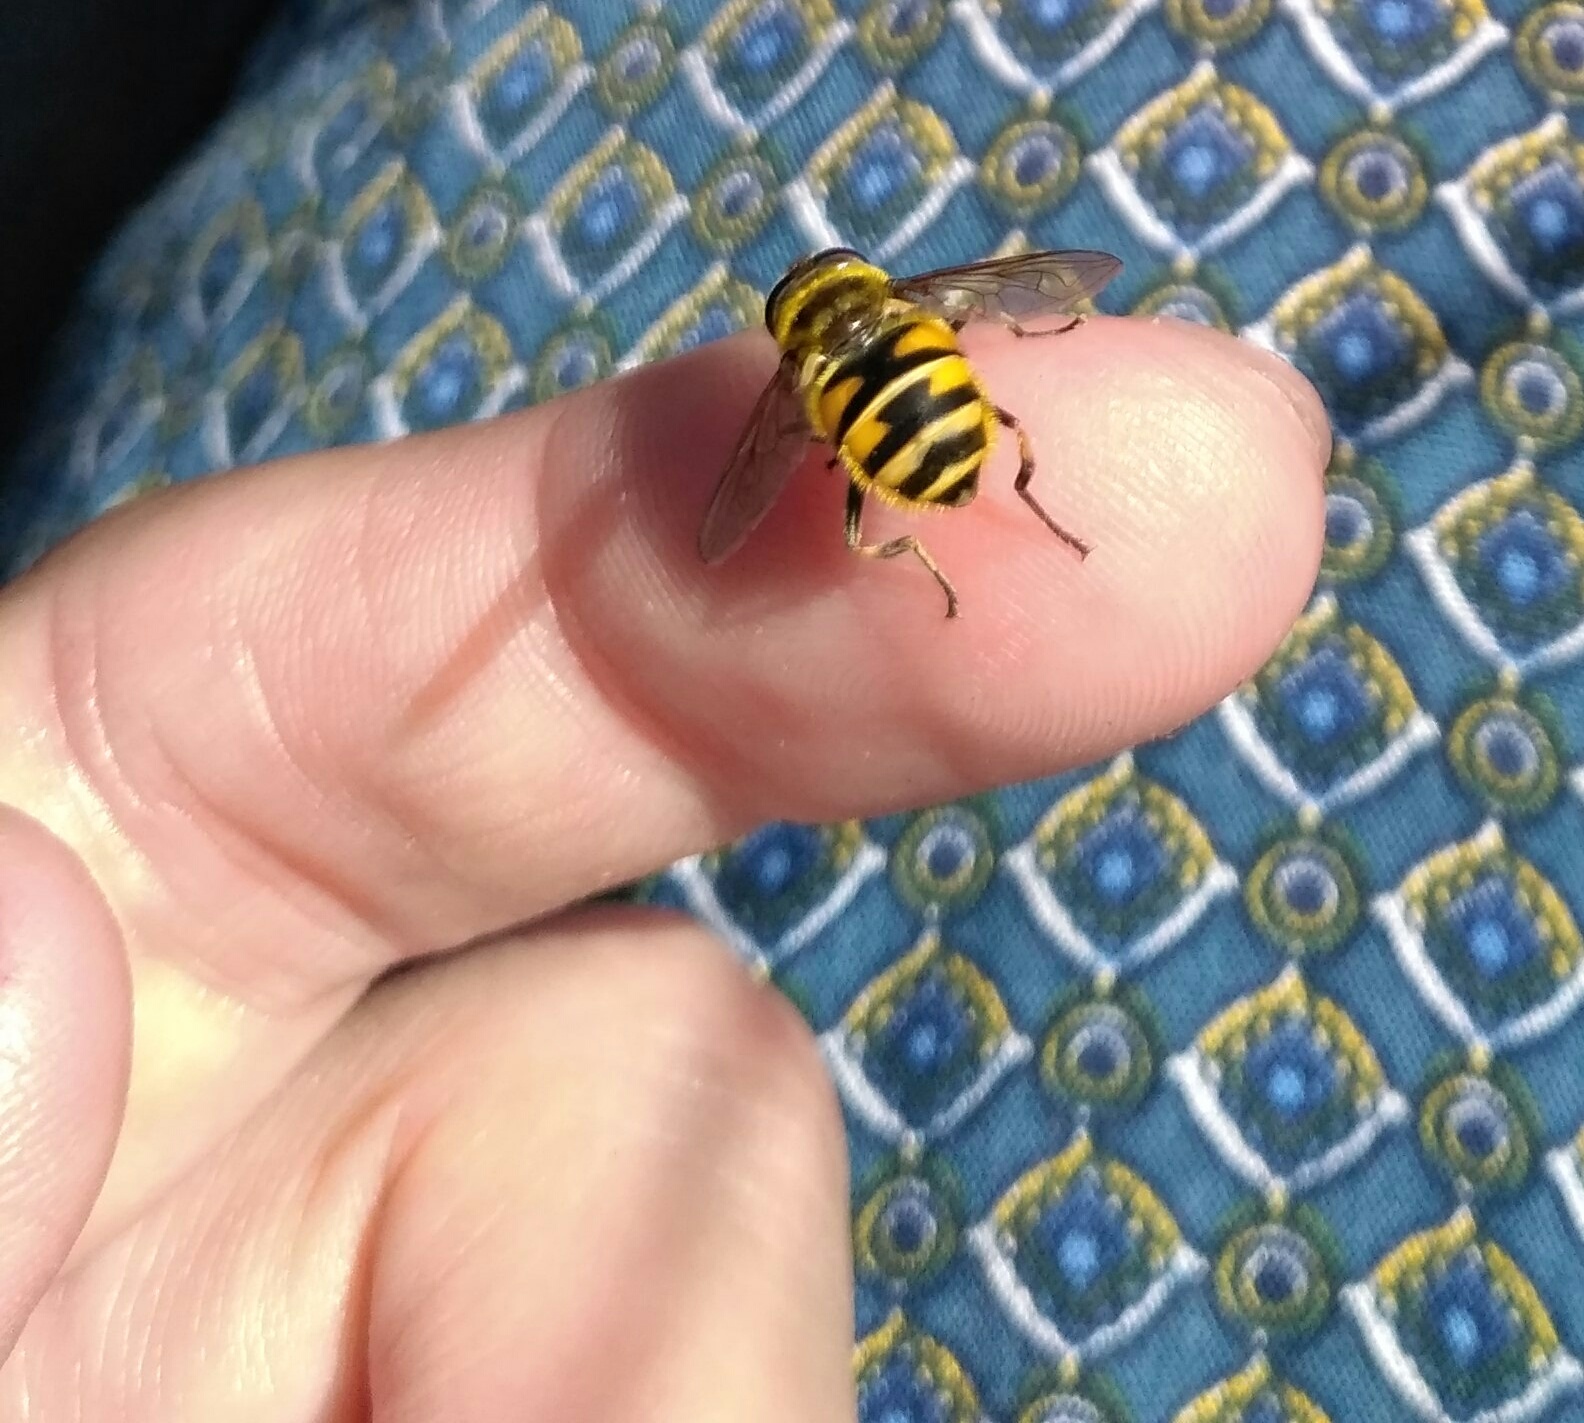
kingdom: Animalia
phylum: Arthropoda
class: Insecta
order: Diptera
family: Syrphidae
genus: Myathropa
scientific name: Myathropa florea
